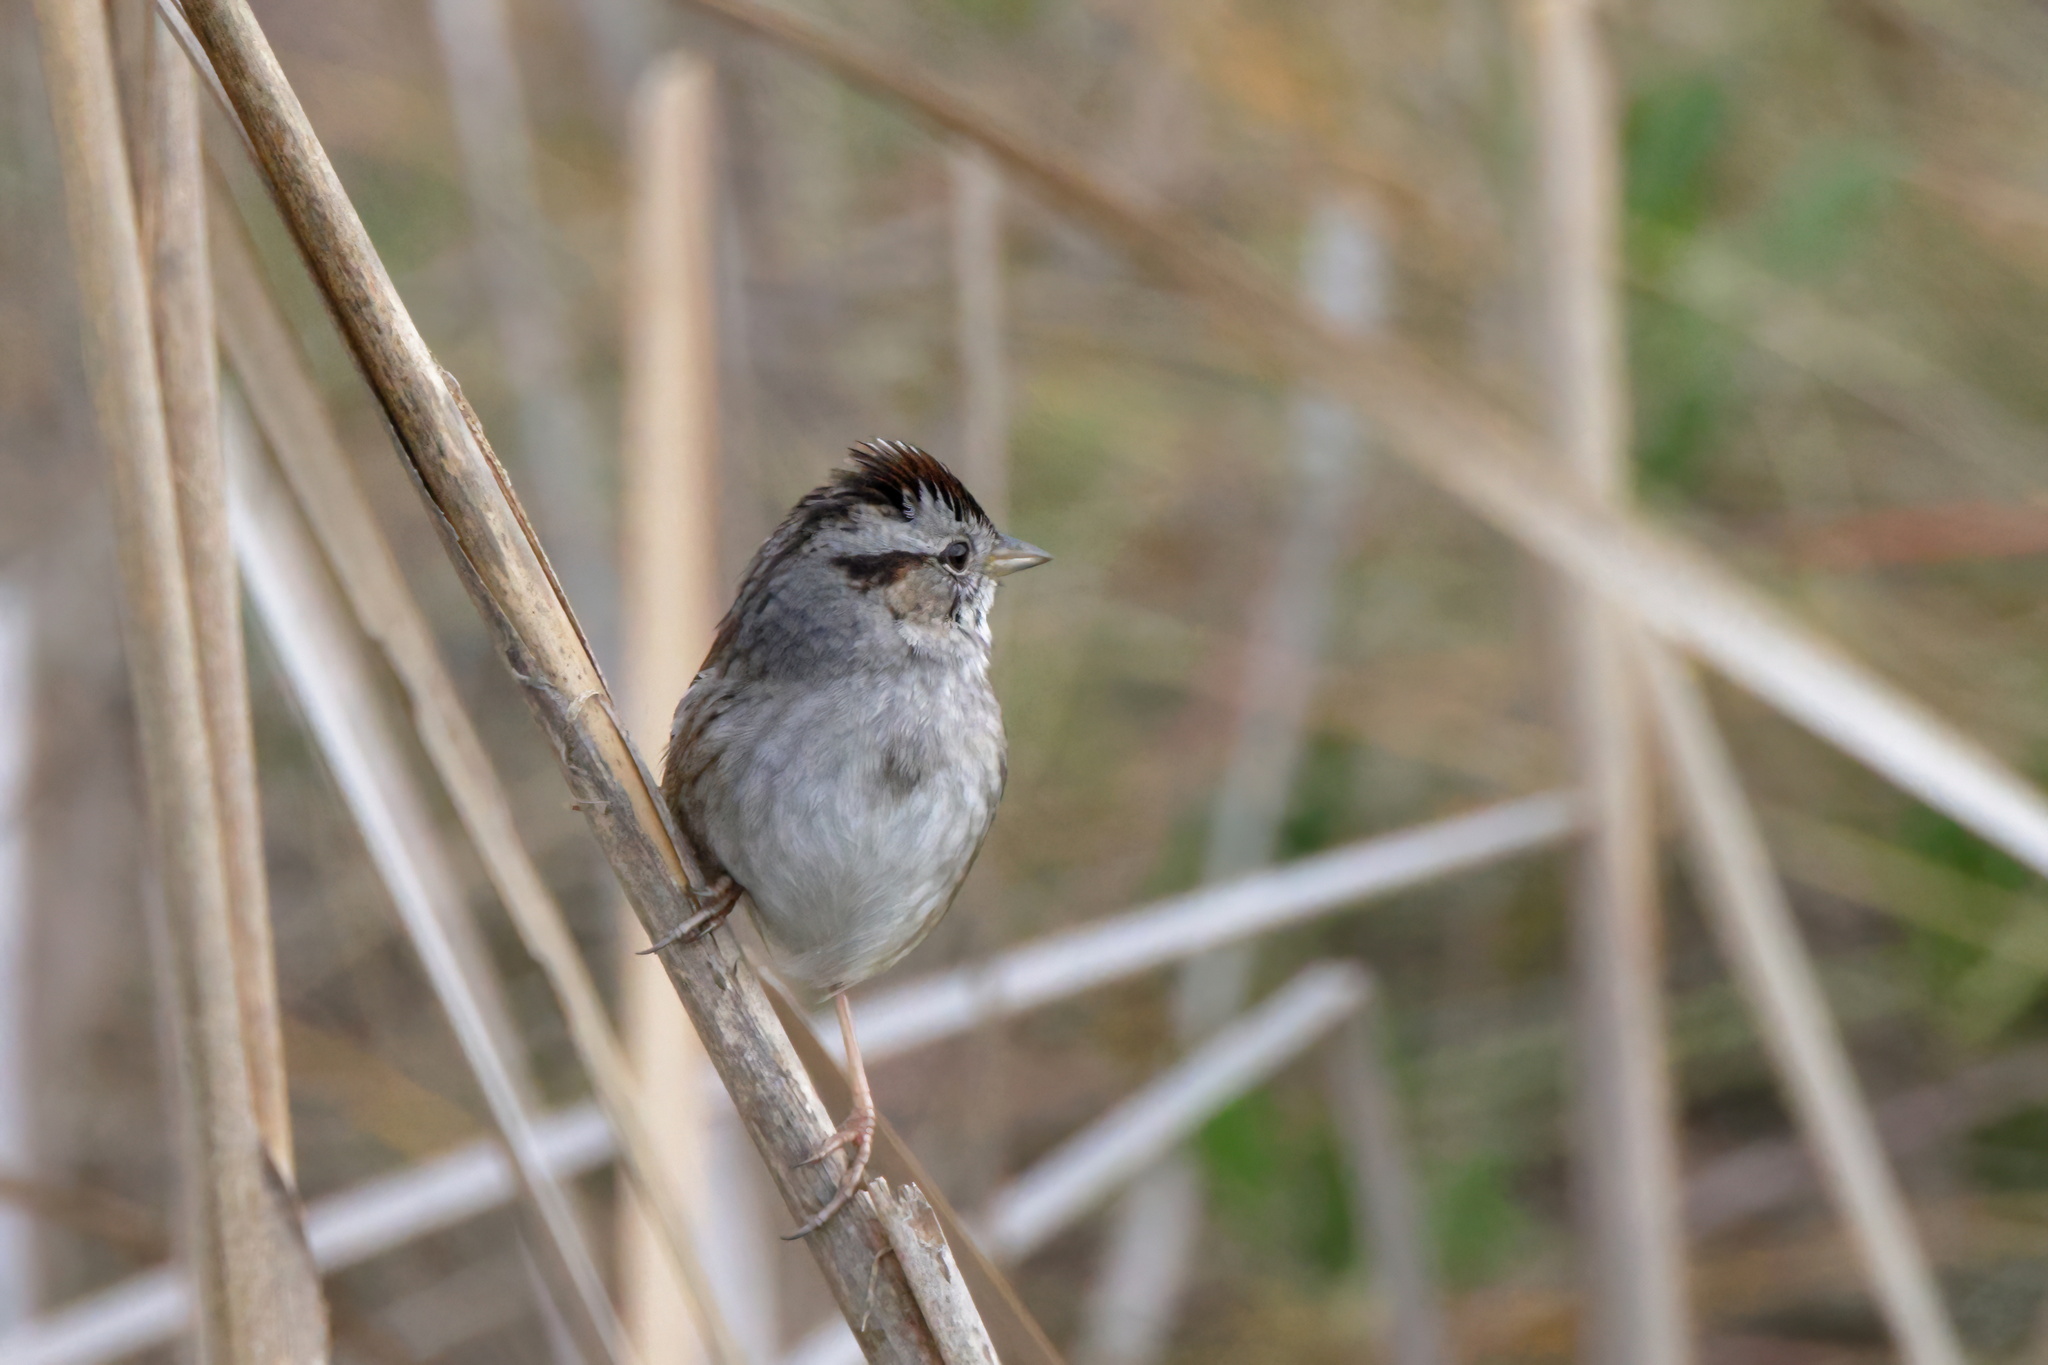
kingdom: Animalia
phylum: Chordata
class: Aves
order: Passeriformes
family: Passerellidae
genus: Melospiza
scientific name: Melospiza georgiana
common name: Swamp sparrow
